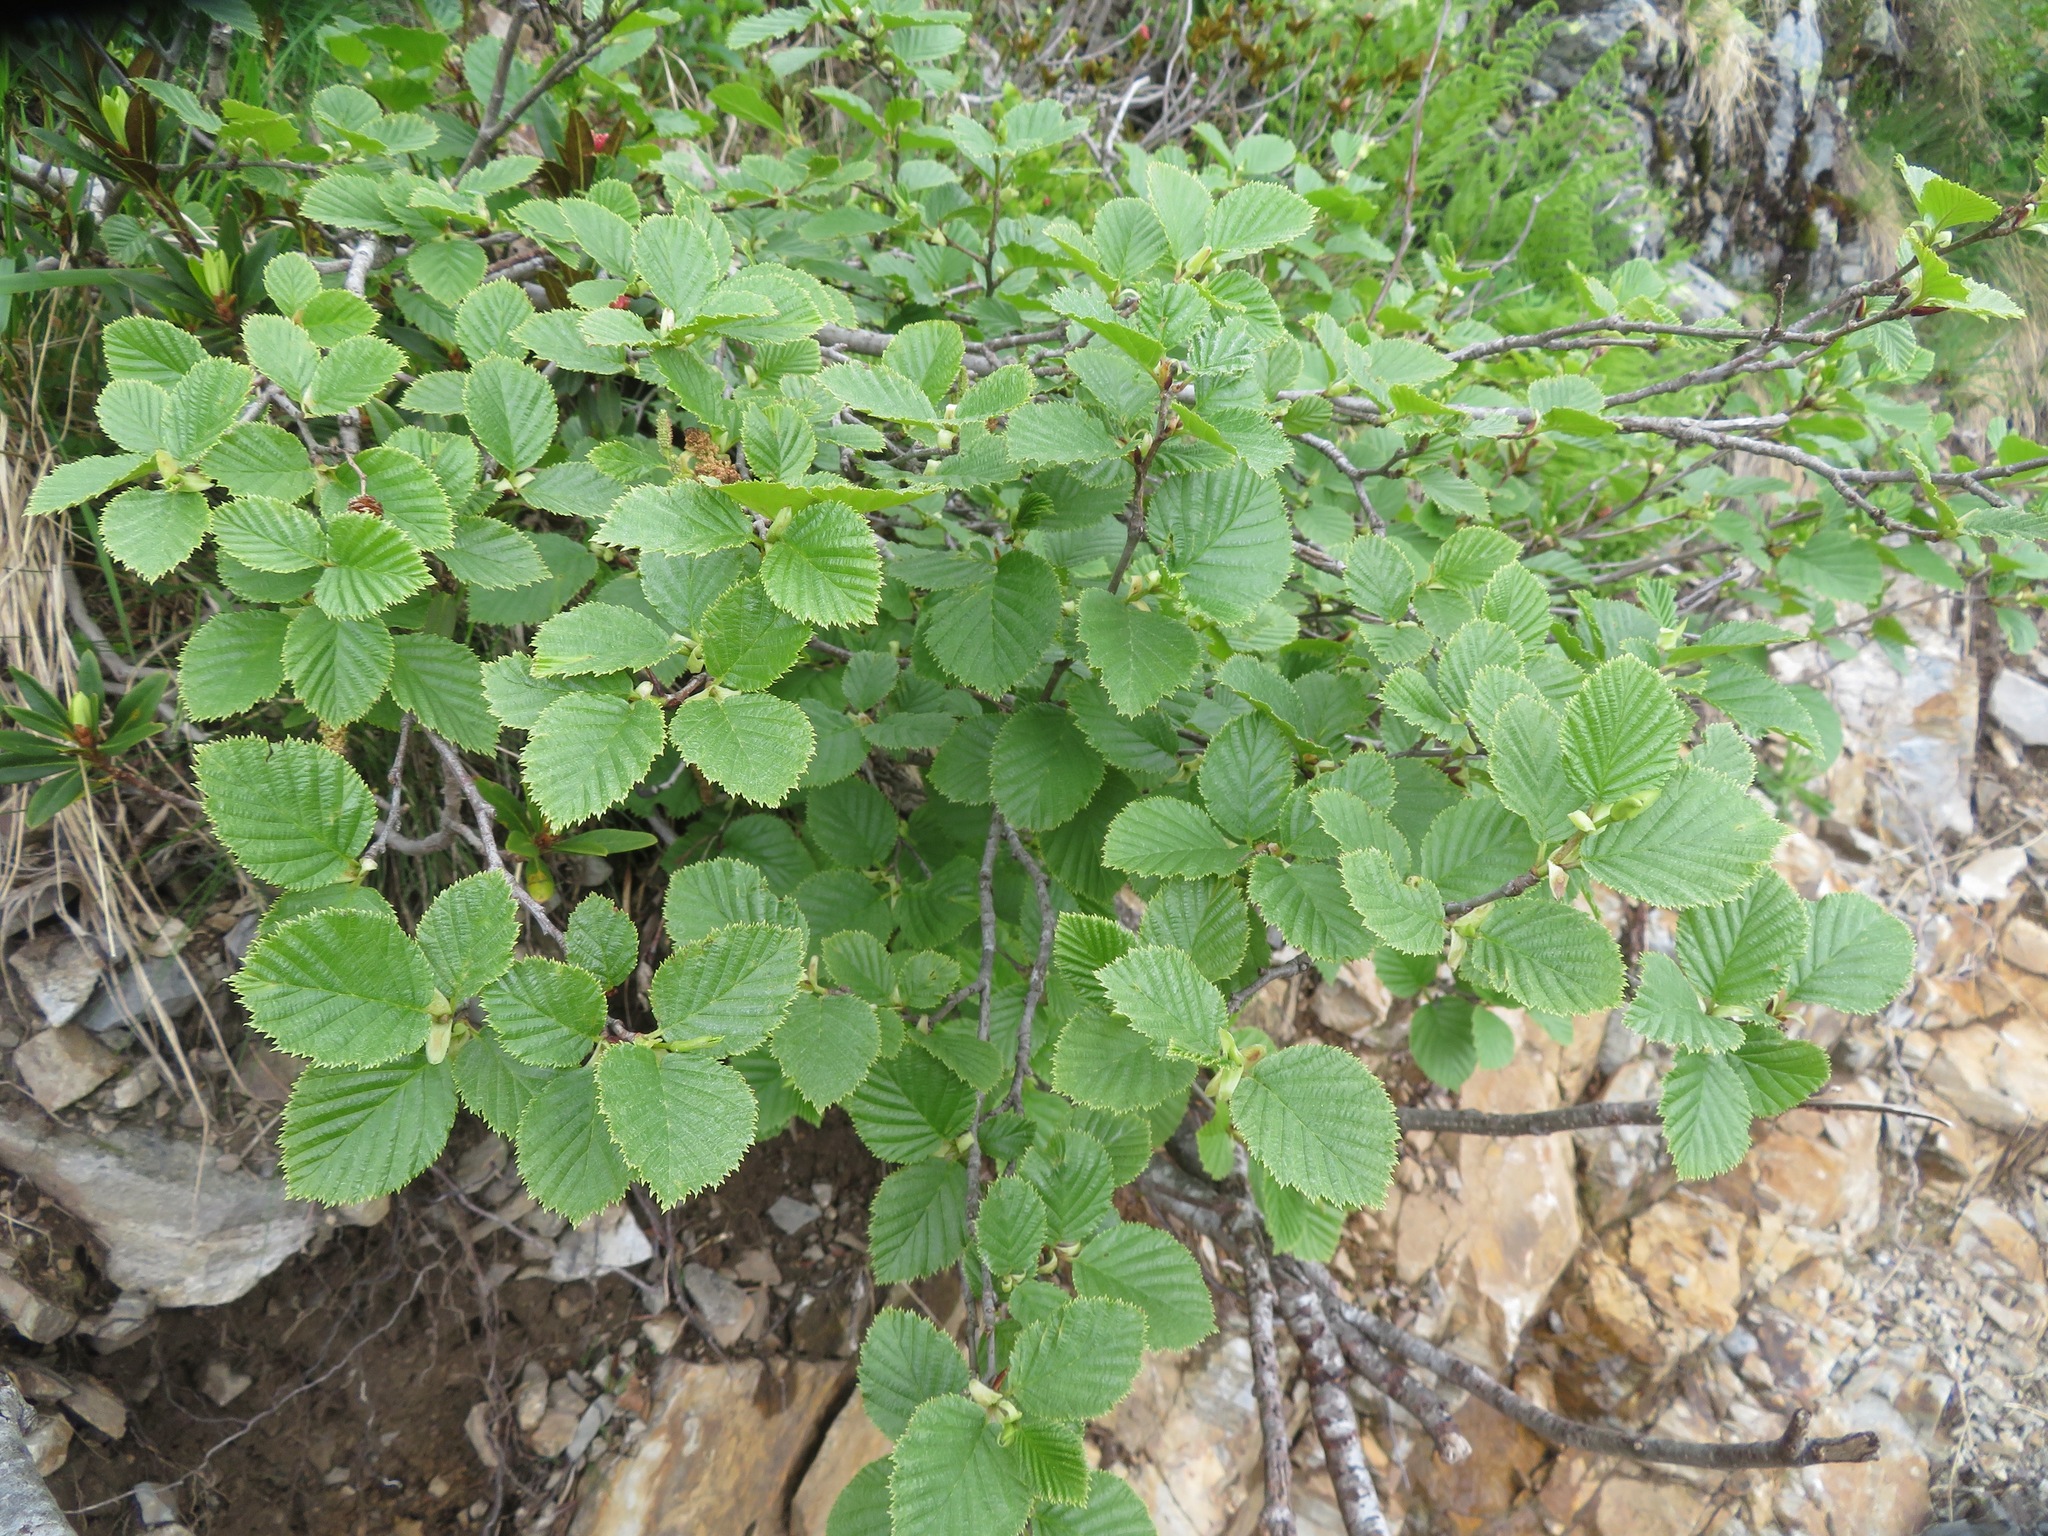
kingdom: Plantae
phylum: Tracheophyta
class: Magnoliopsida
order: Fagales
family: Betulaceae
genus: Alnus
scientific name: Alnus alnobetula
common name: Green alder
